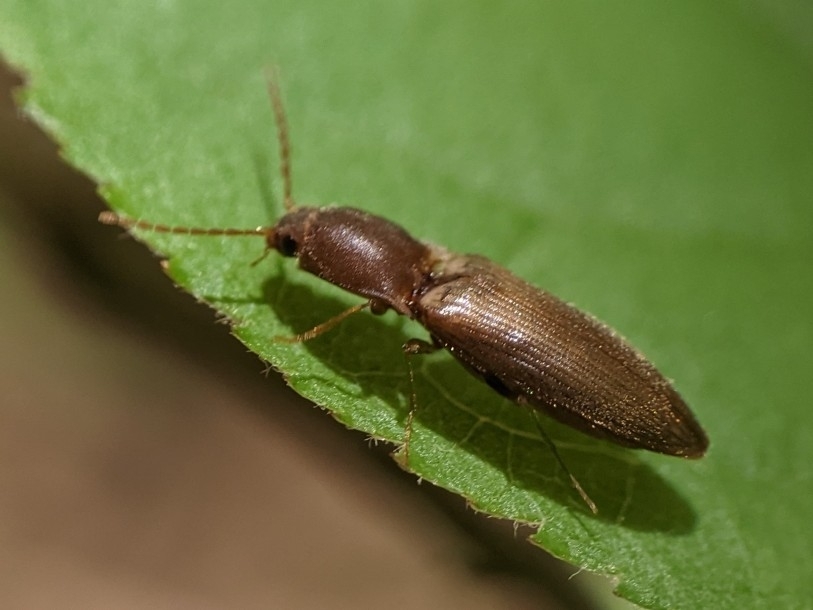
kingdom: Animalia
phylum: Arthropoda
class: Insecta
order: Coleoptera
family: Elateridae
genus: Dolerosomus
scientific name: Dolerosomus silaceus
